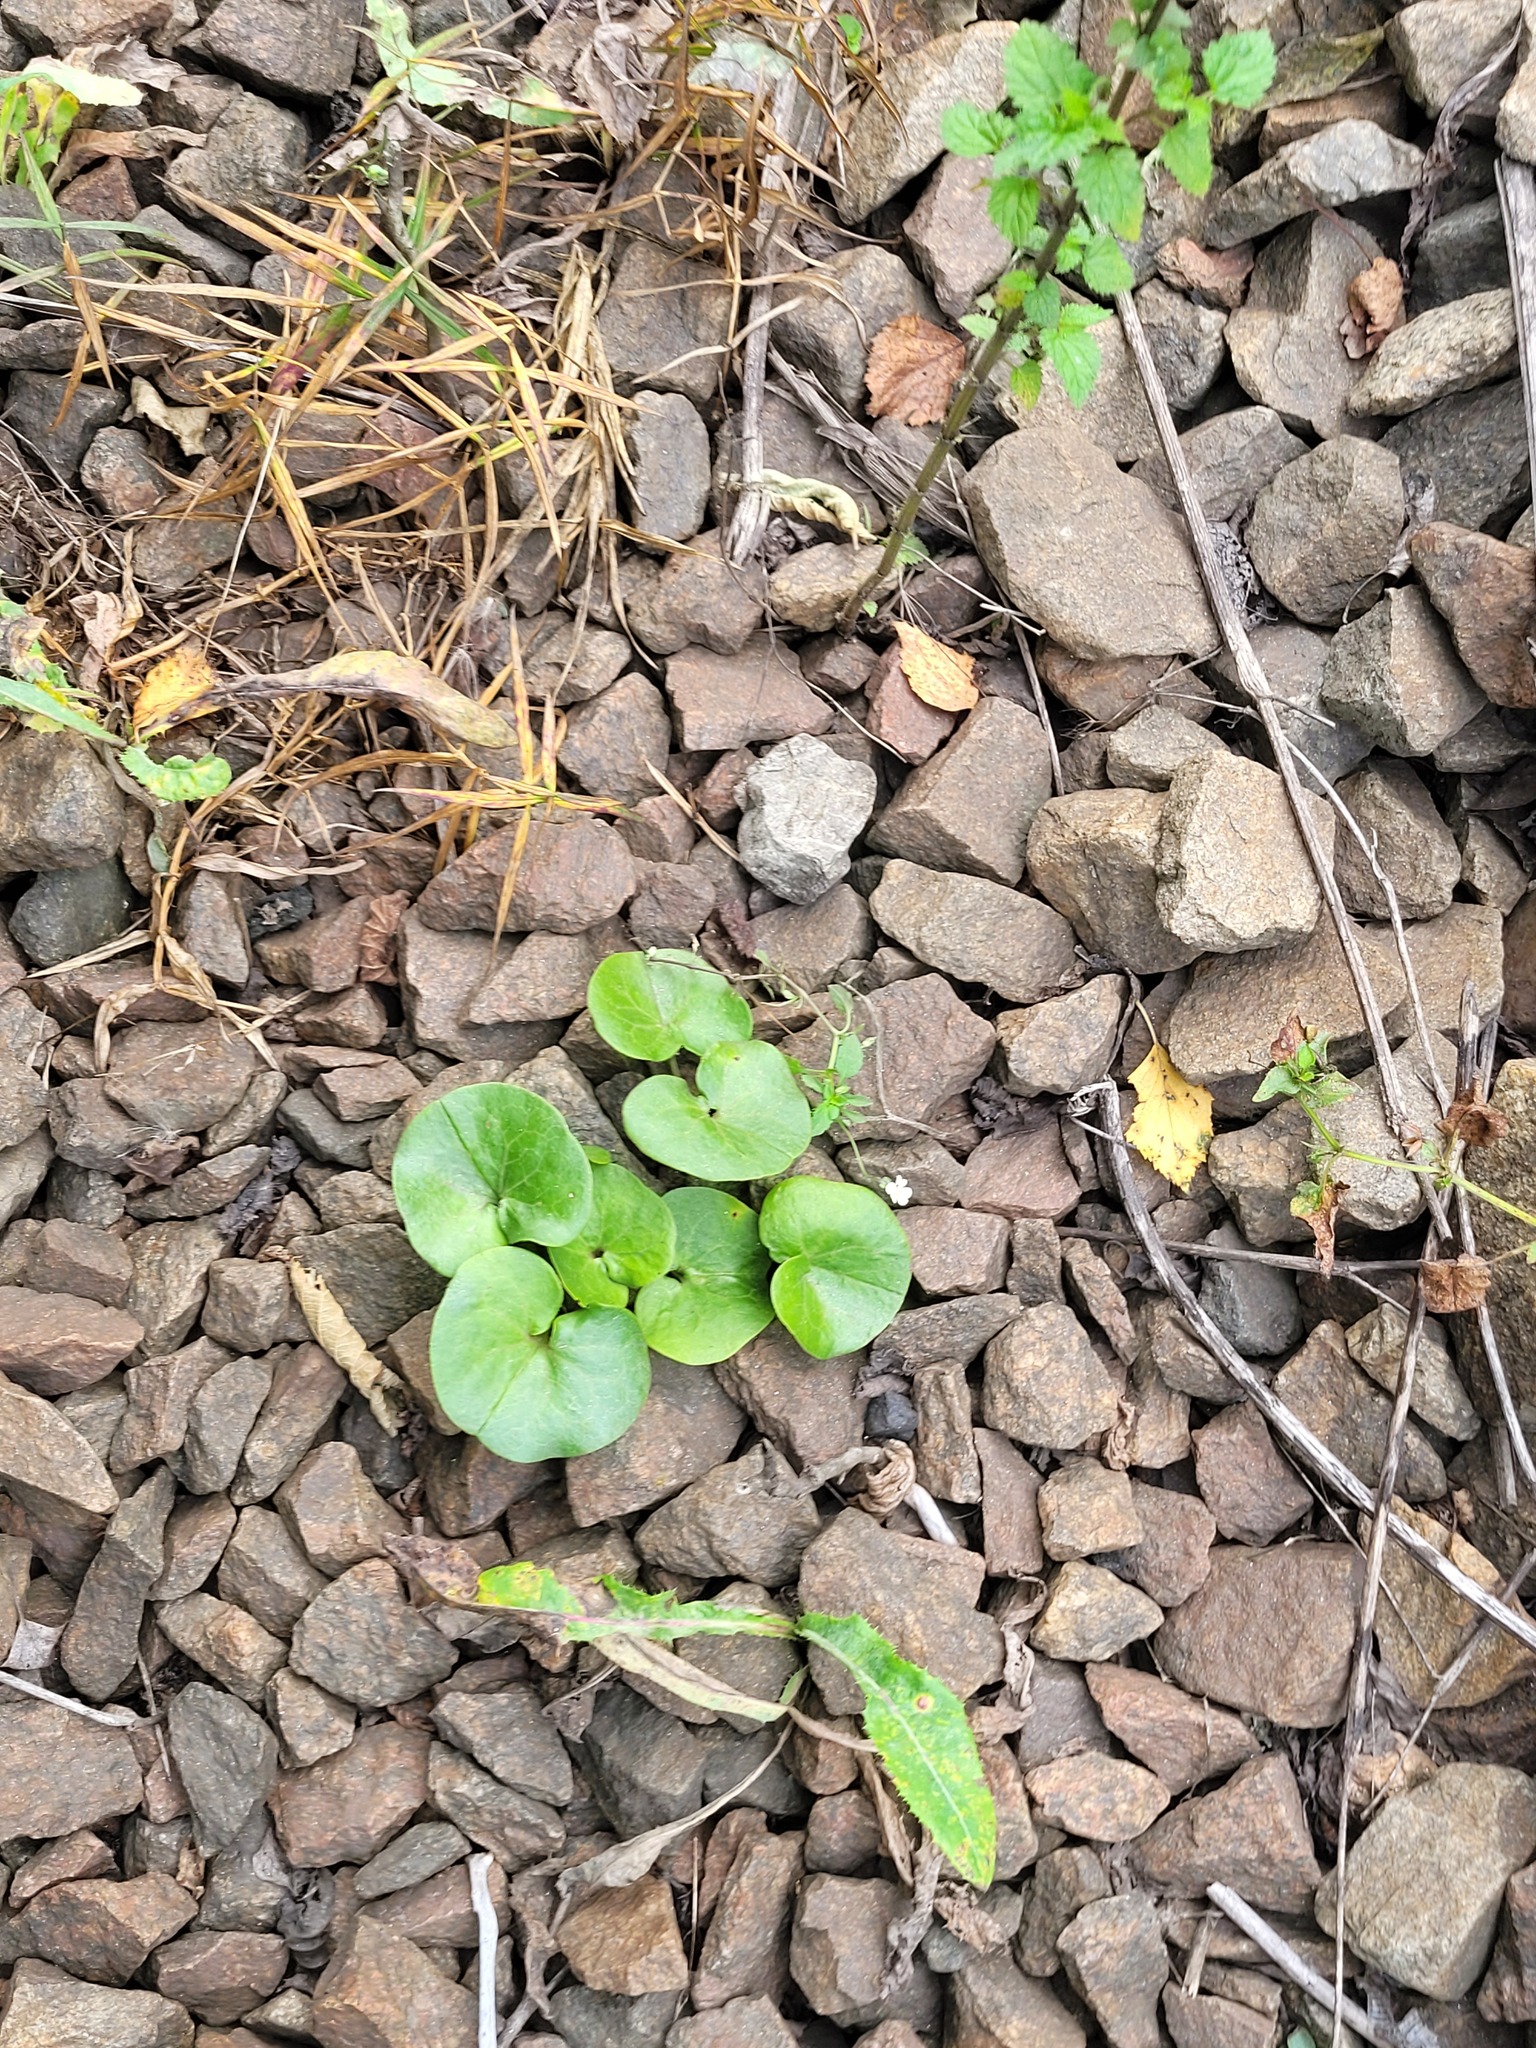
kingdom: Plantae
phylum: Tracheophyta
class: Magnoliopsida
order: Piperales
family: Aristolochiaceae
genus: Asarum
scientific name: Asarum europaeum
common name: Asarabacca
